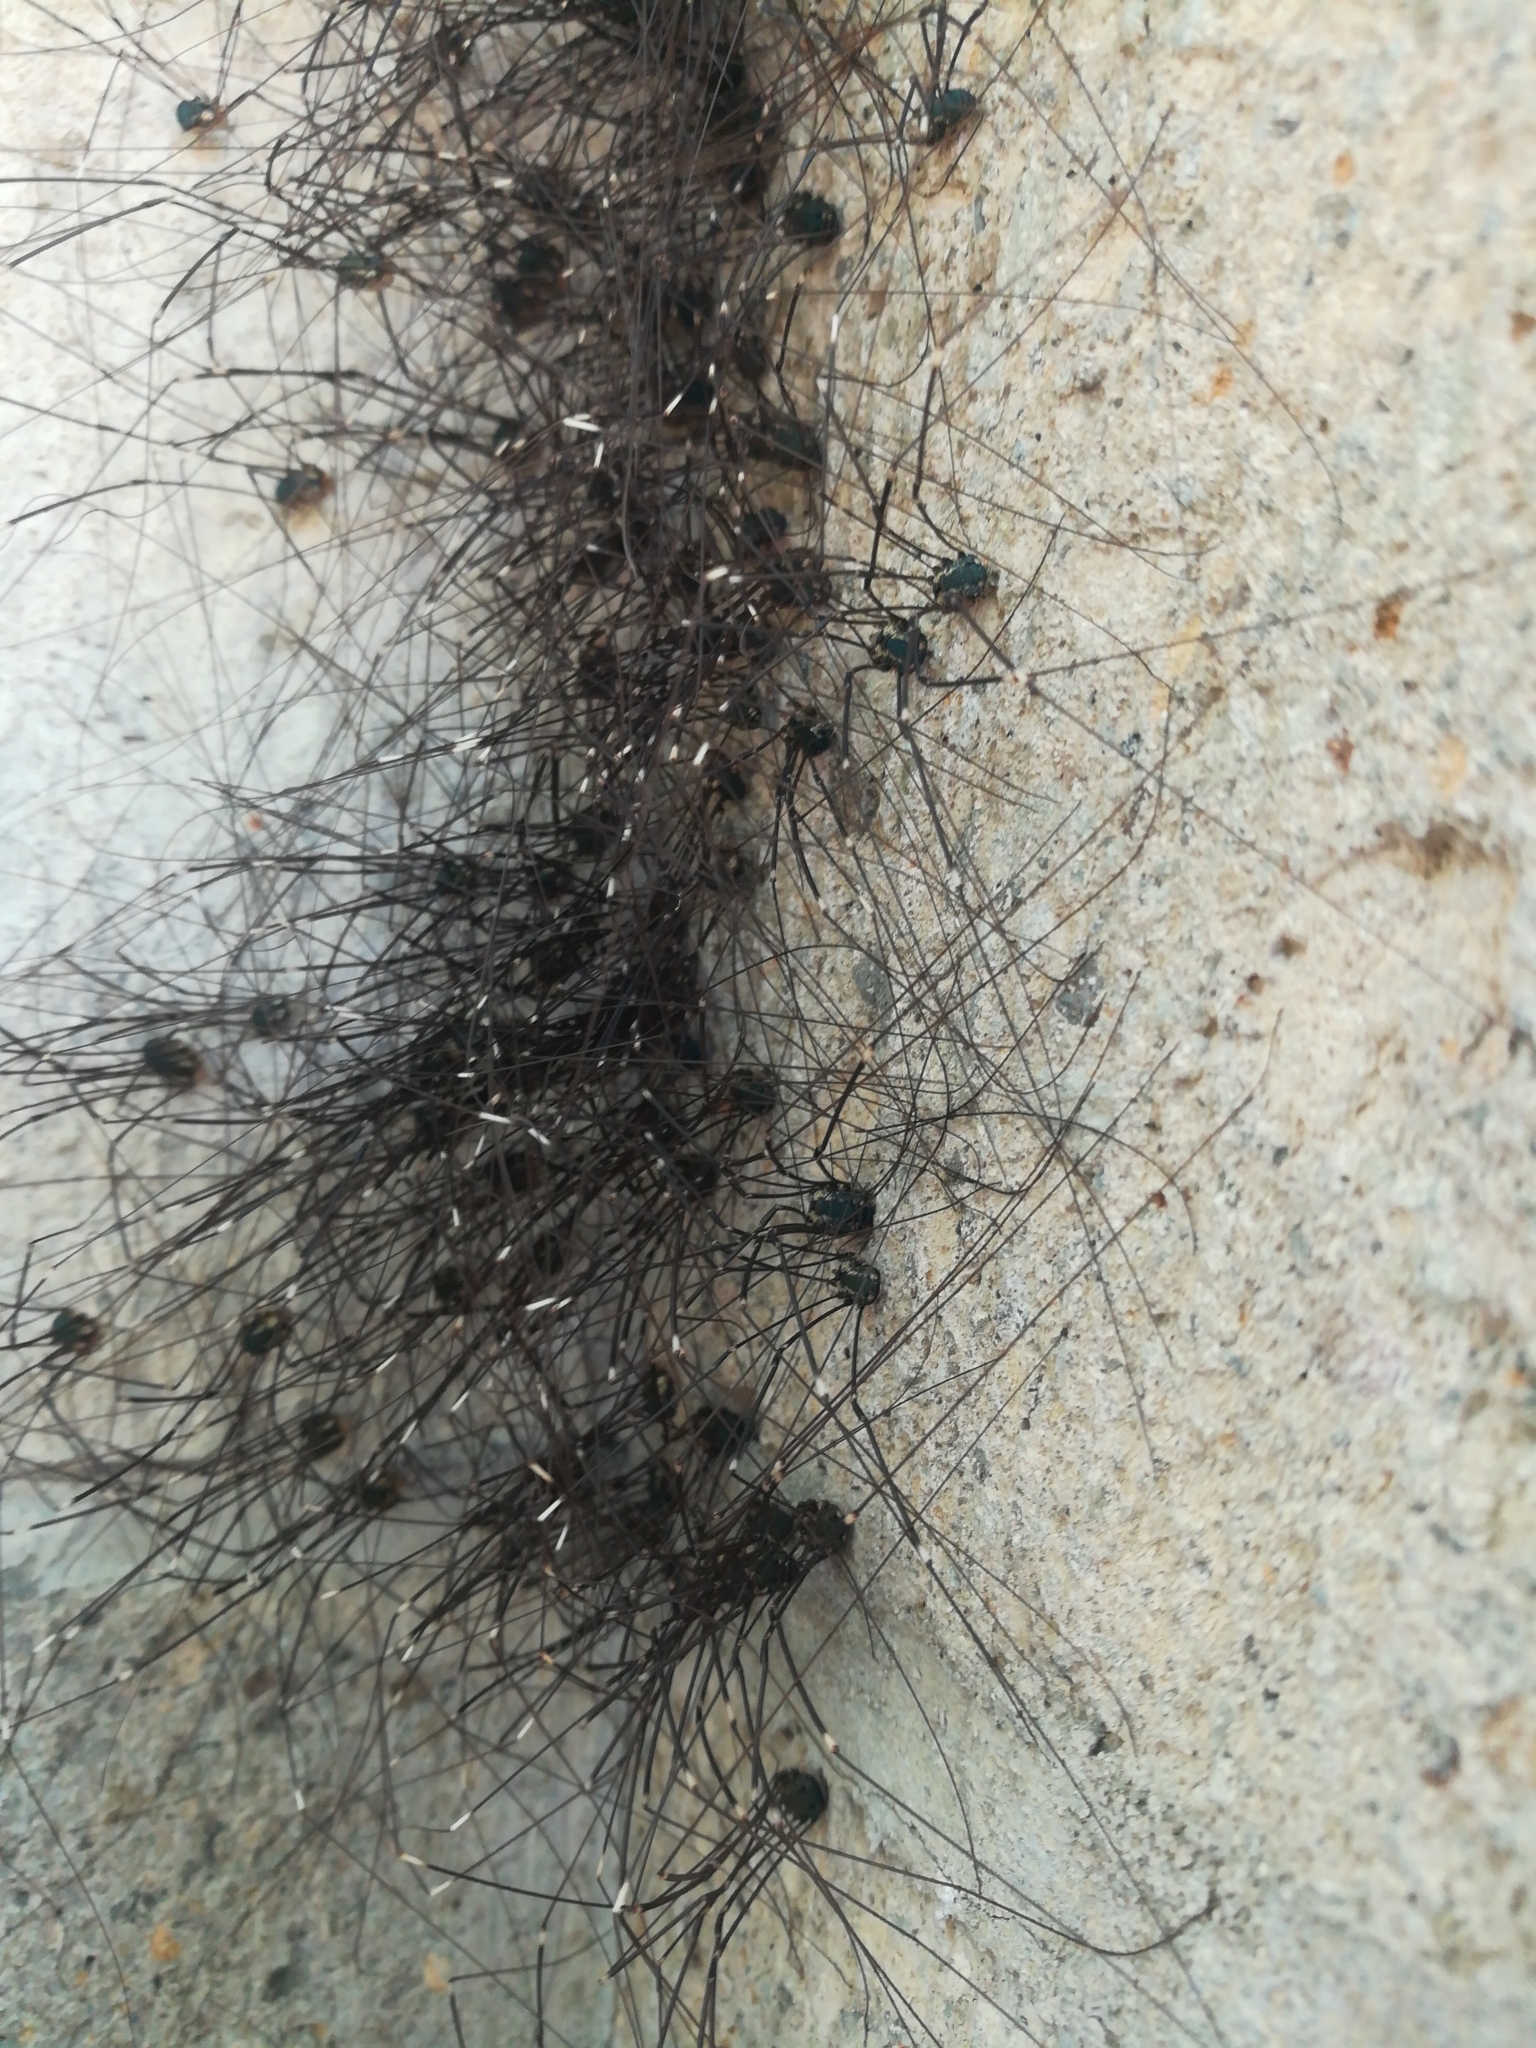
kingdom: Animalia
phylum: Arthropoda
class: Arachnida
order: Opiliones
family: Sclerosomatidae
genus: Leiobunum
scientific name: Leiobunum
